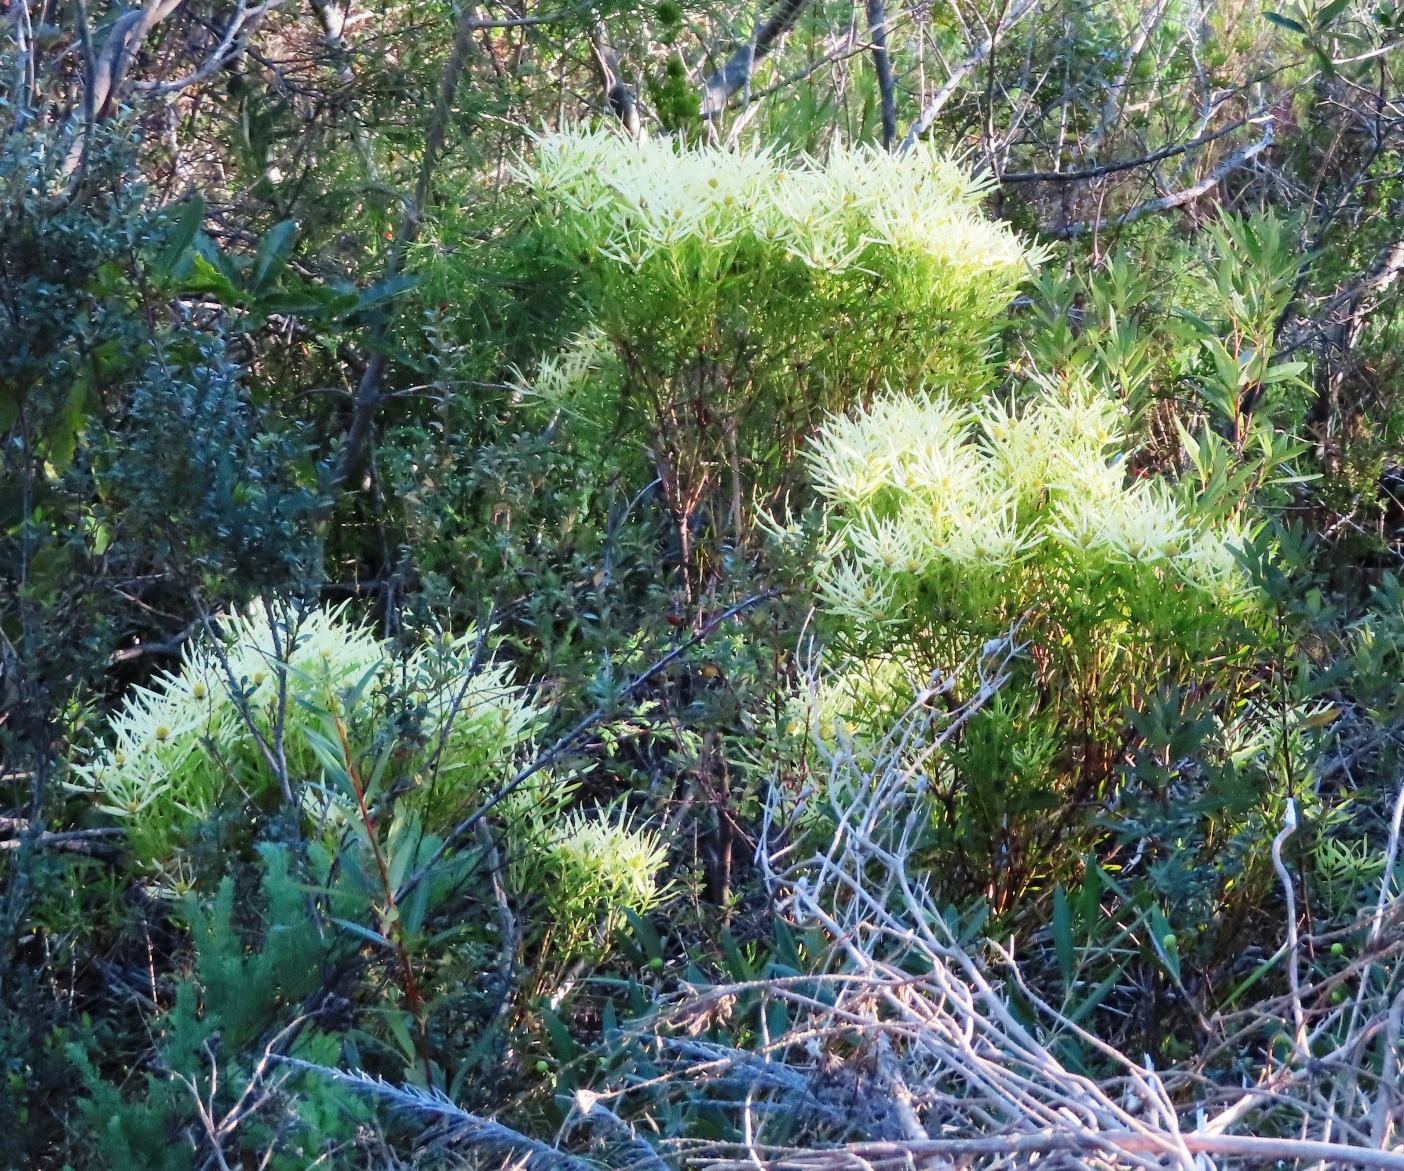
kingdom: Plantae
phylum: Tracheophyta
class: Magnoliopsida
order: Proteales
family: Proteaceae
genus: Leucadendron
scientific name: Leucadendron salignum
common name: Common sunshine conebush
